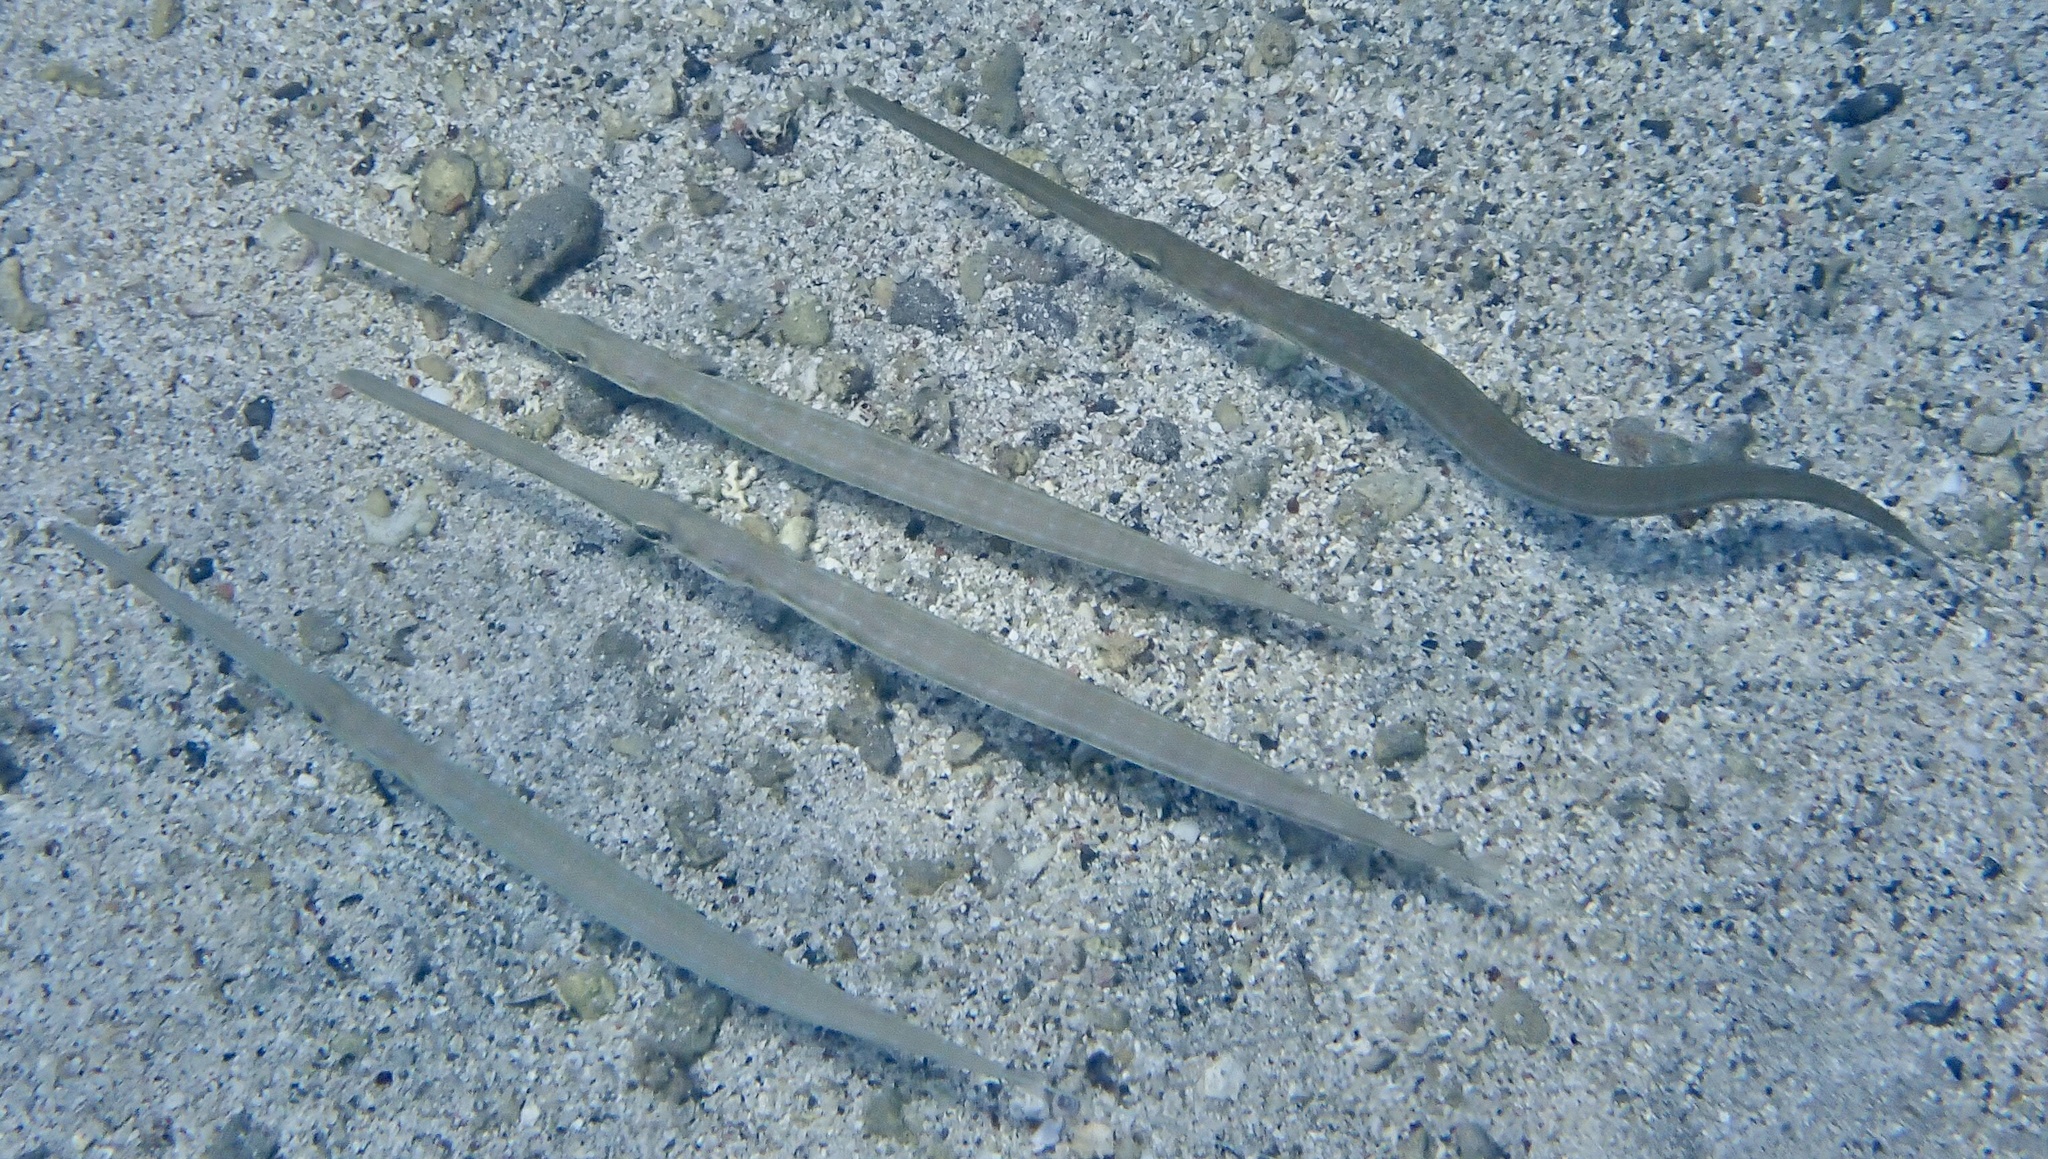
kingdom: Animalia
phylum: Chordata
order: Syngnathiformes
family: Fistulariidae
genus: Fistularia
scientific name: Fistularia commersonii
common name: Bluespotted cornetfish
